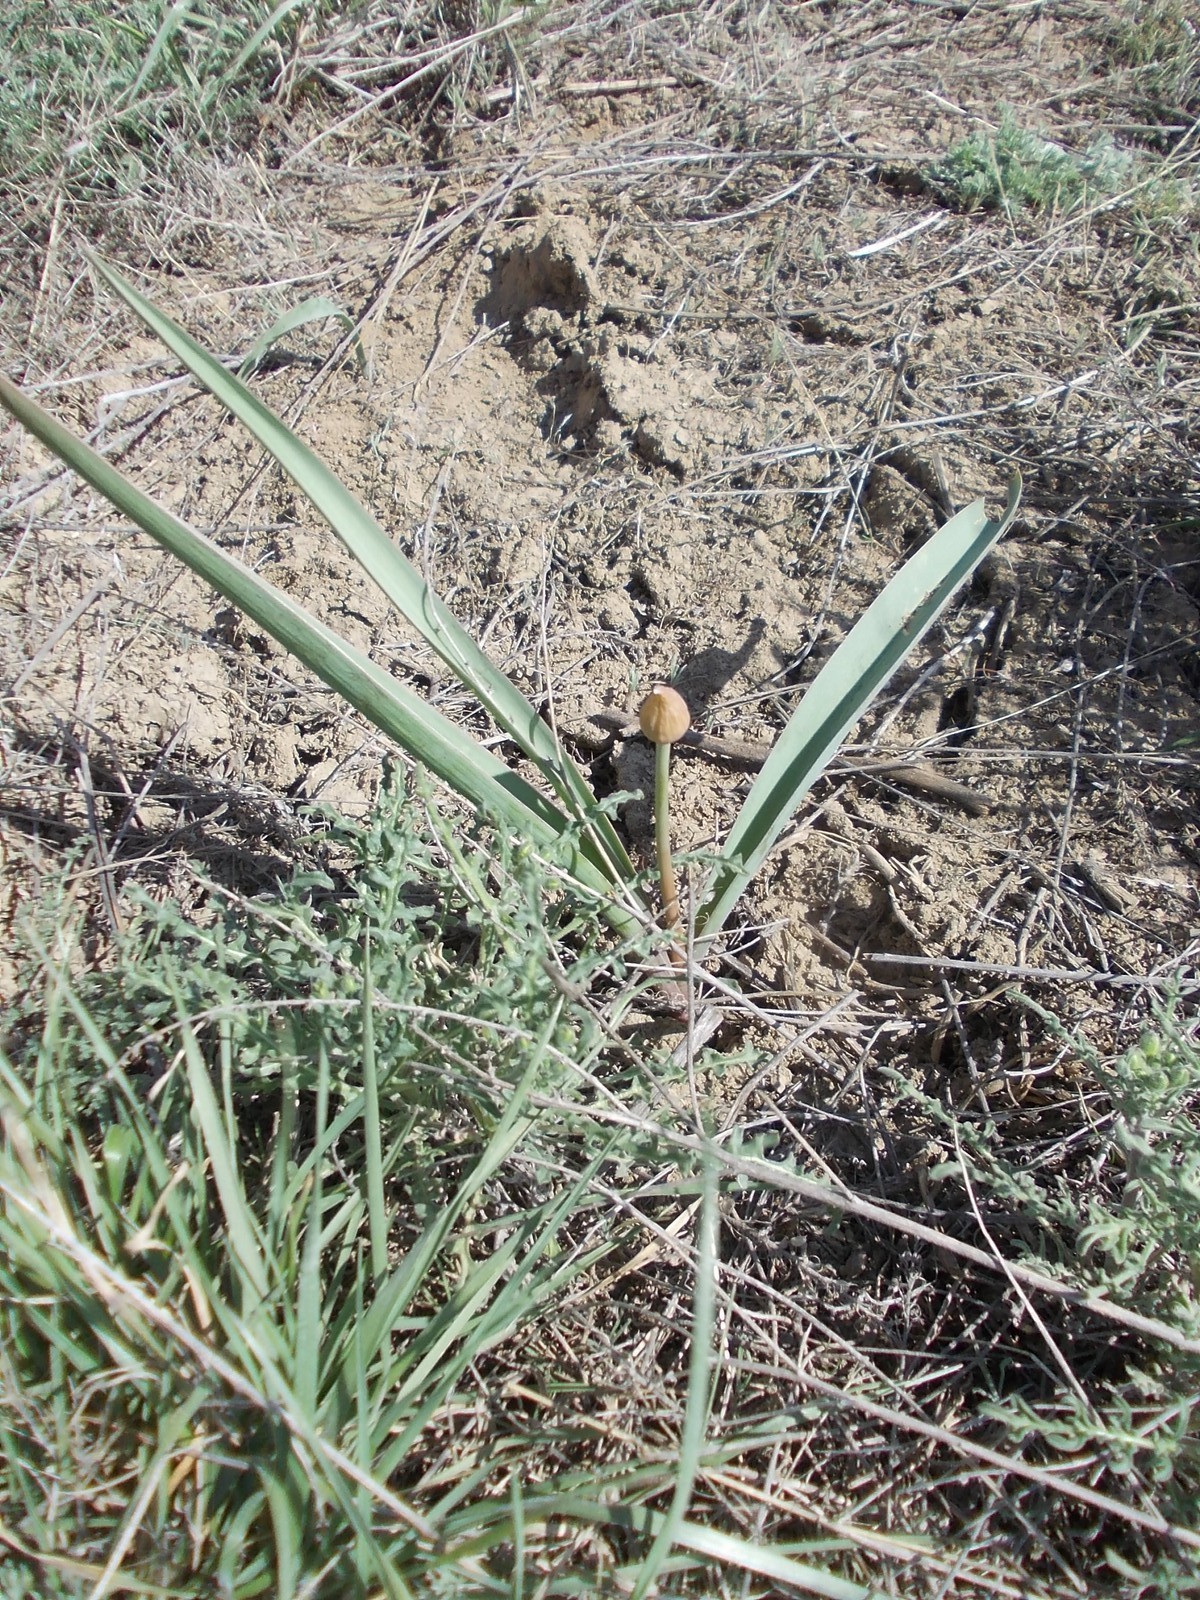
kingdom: Plantae
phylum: Tracheophyta
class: Liliopsida
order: Asparagales
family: Amaryllidaceae
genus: Allium
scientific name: Allium tulipifolium
